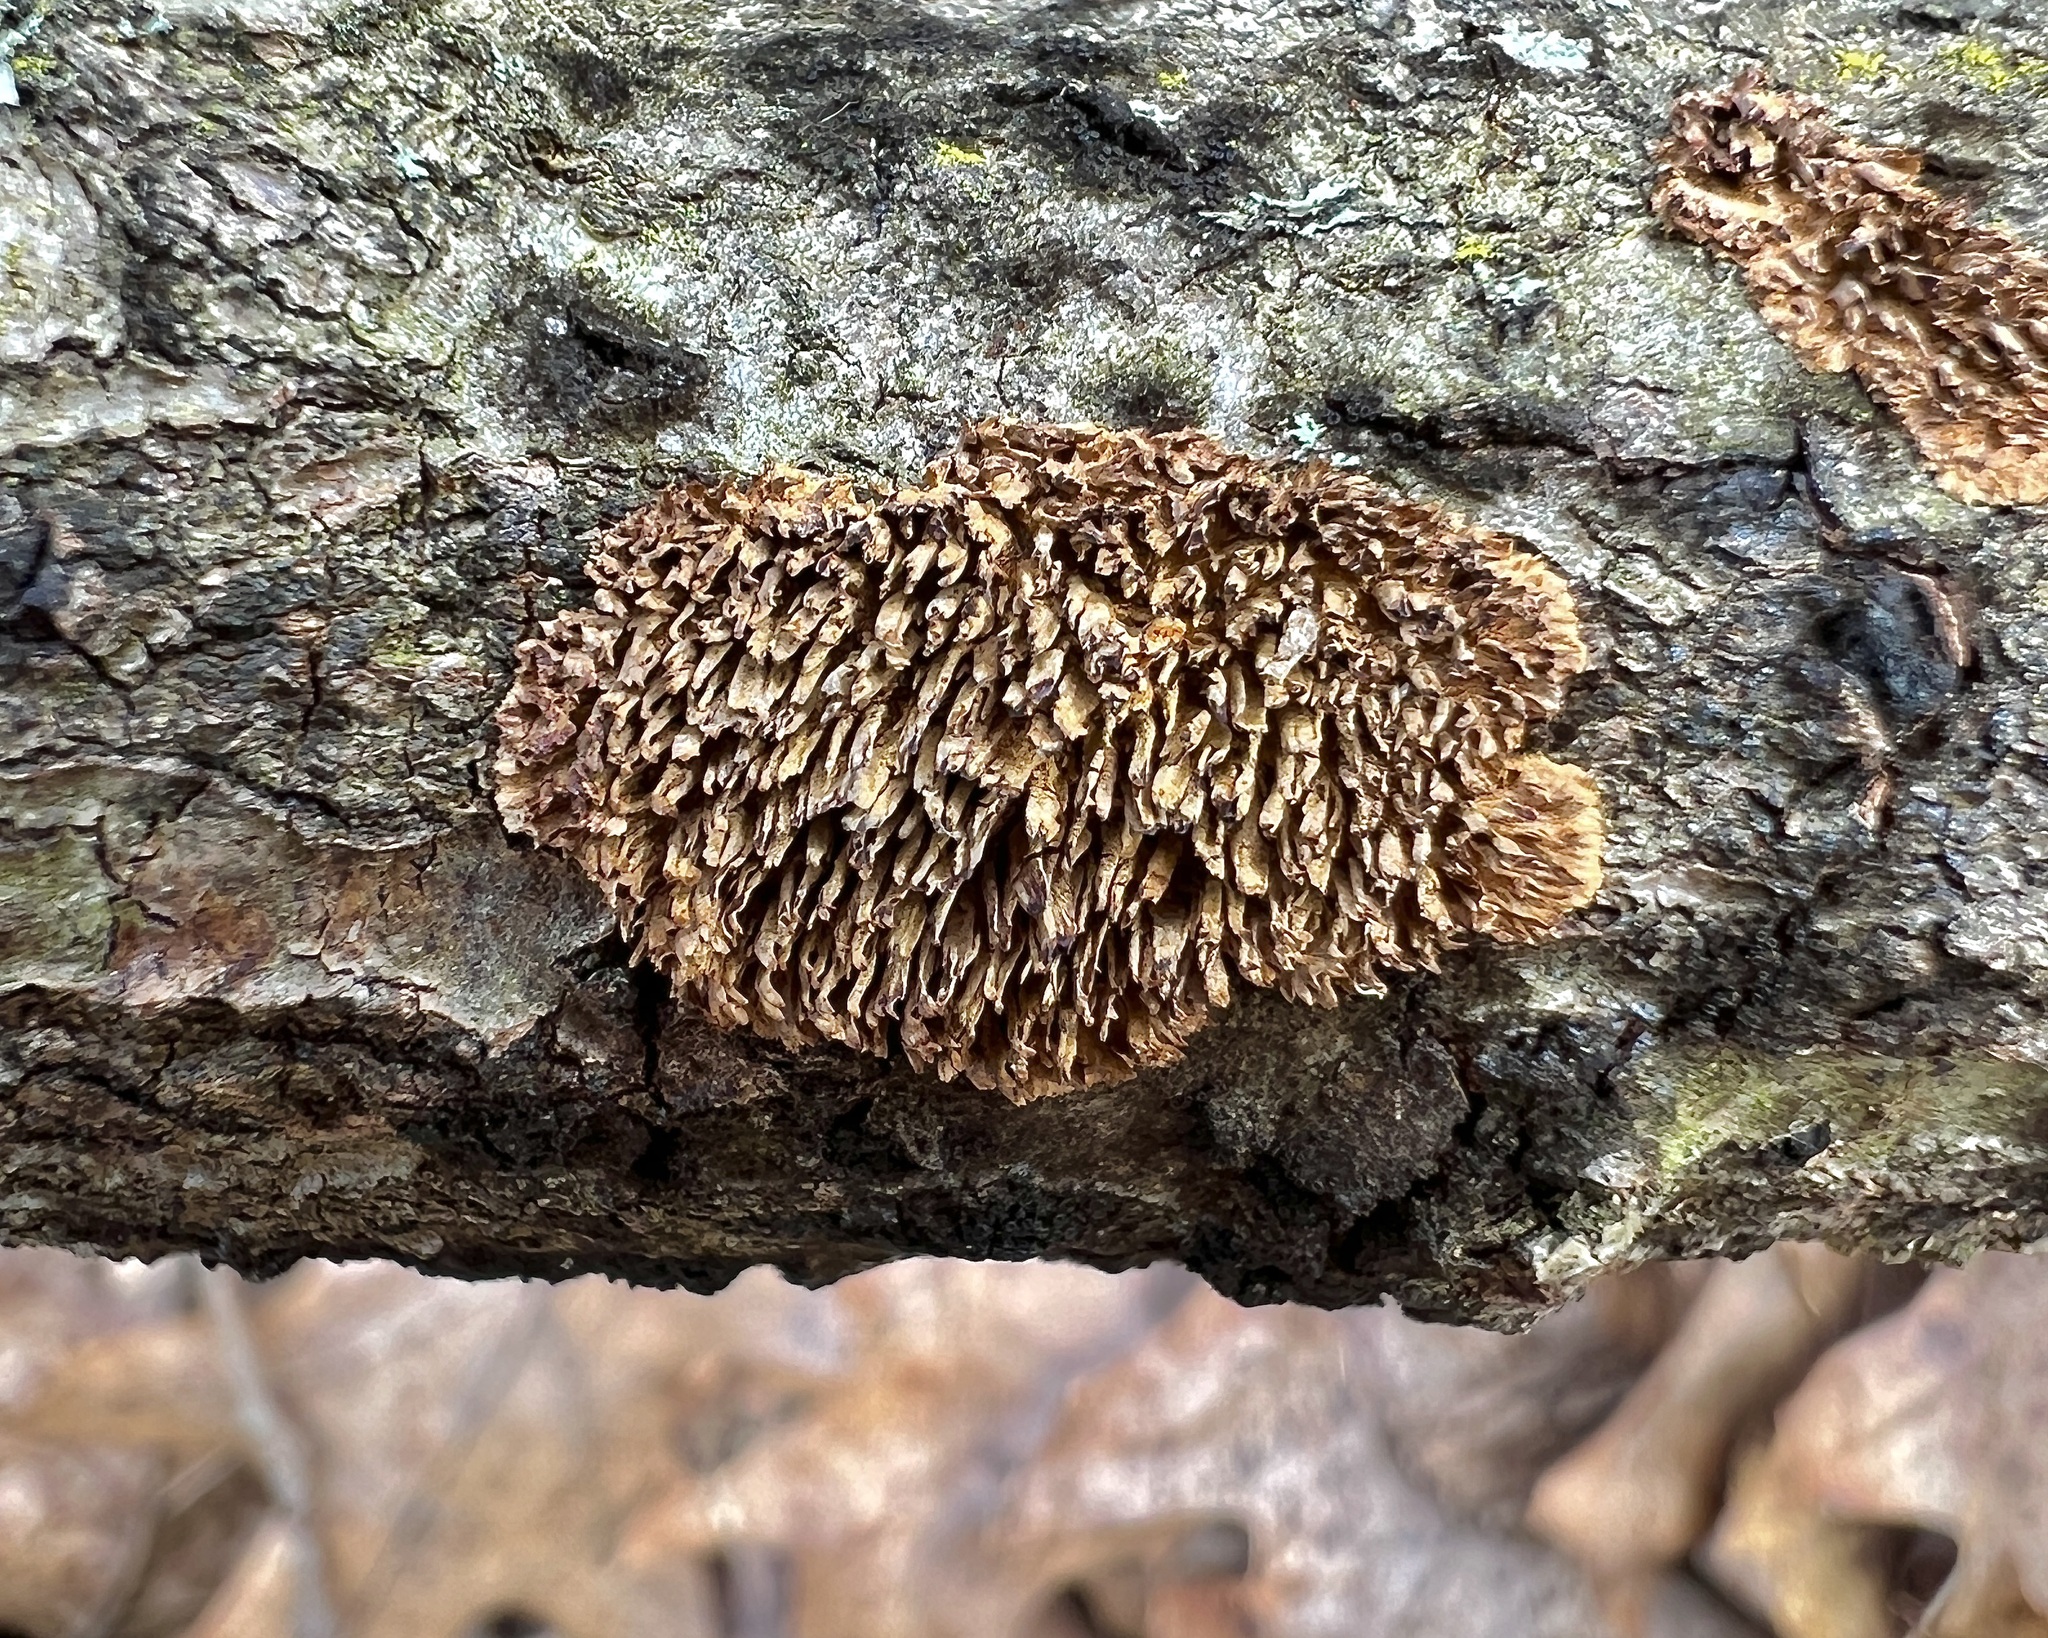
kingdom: Fungi
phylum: Basidiomycota
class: Agaricomycetes
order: Hymenochaetales
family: Hymenochaetaceae
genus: Hydnoporia
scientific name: Hydnoporia olivacea
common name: Brown-toothed crust fungus
